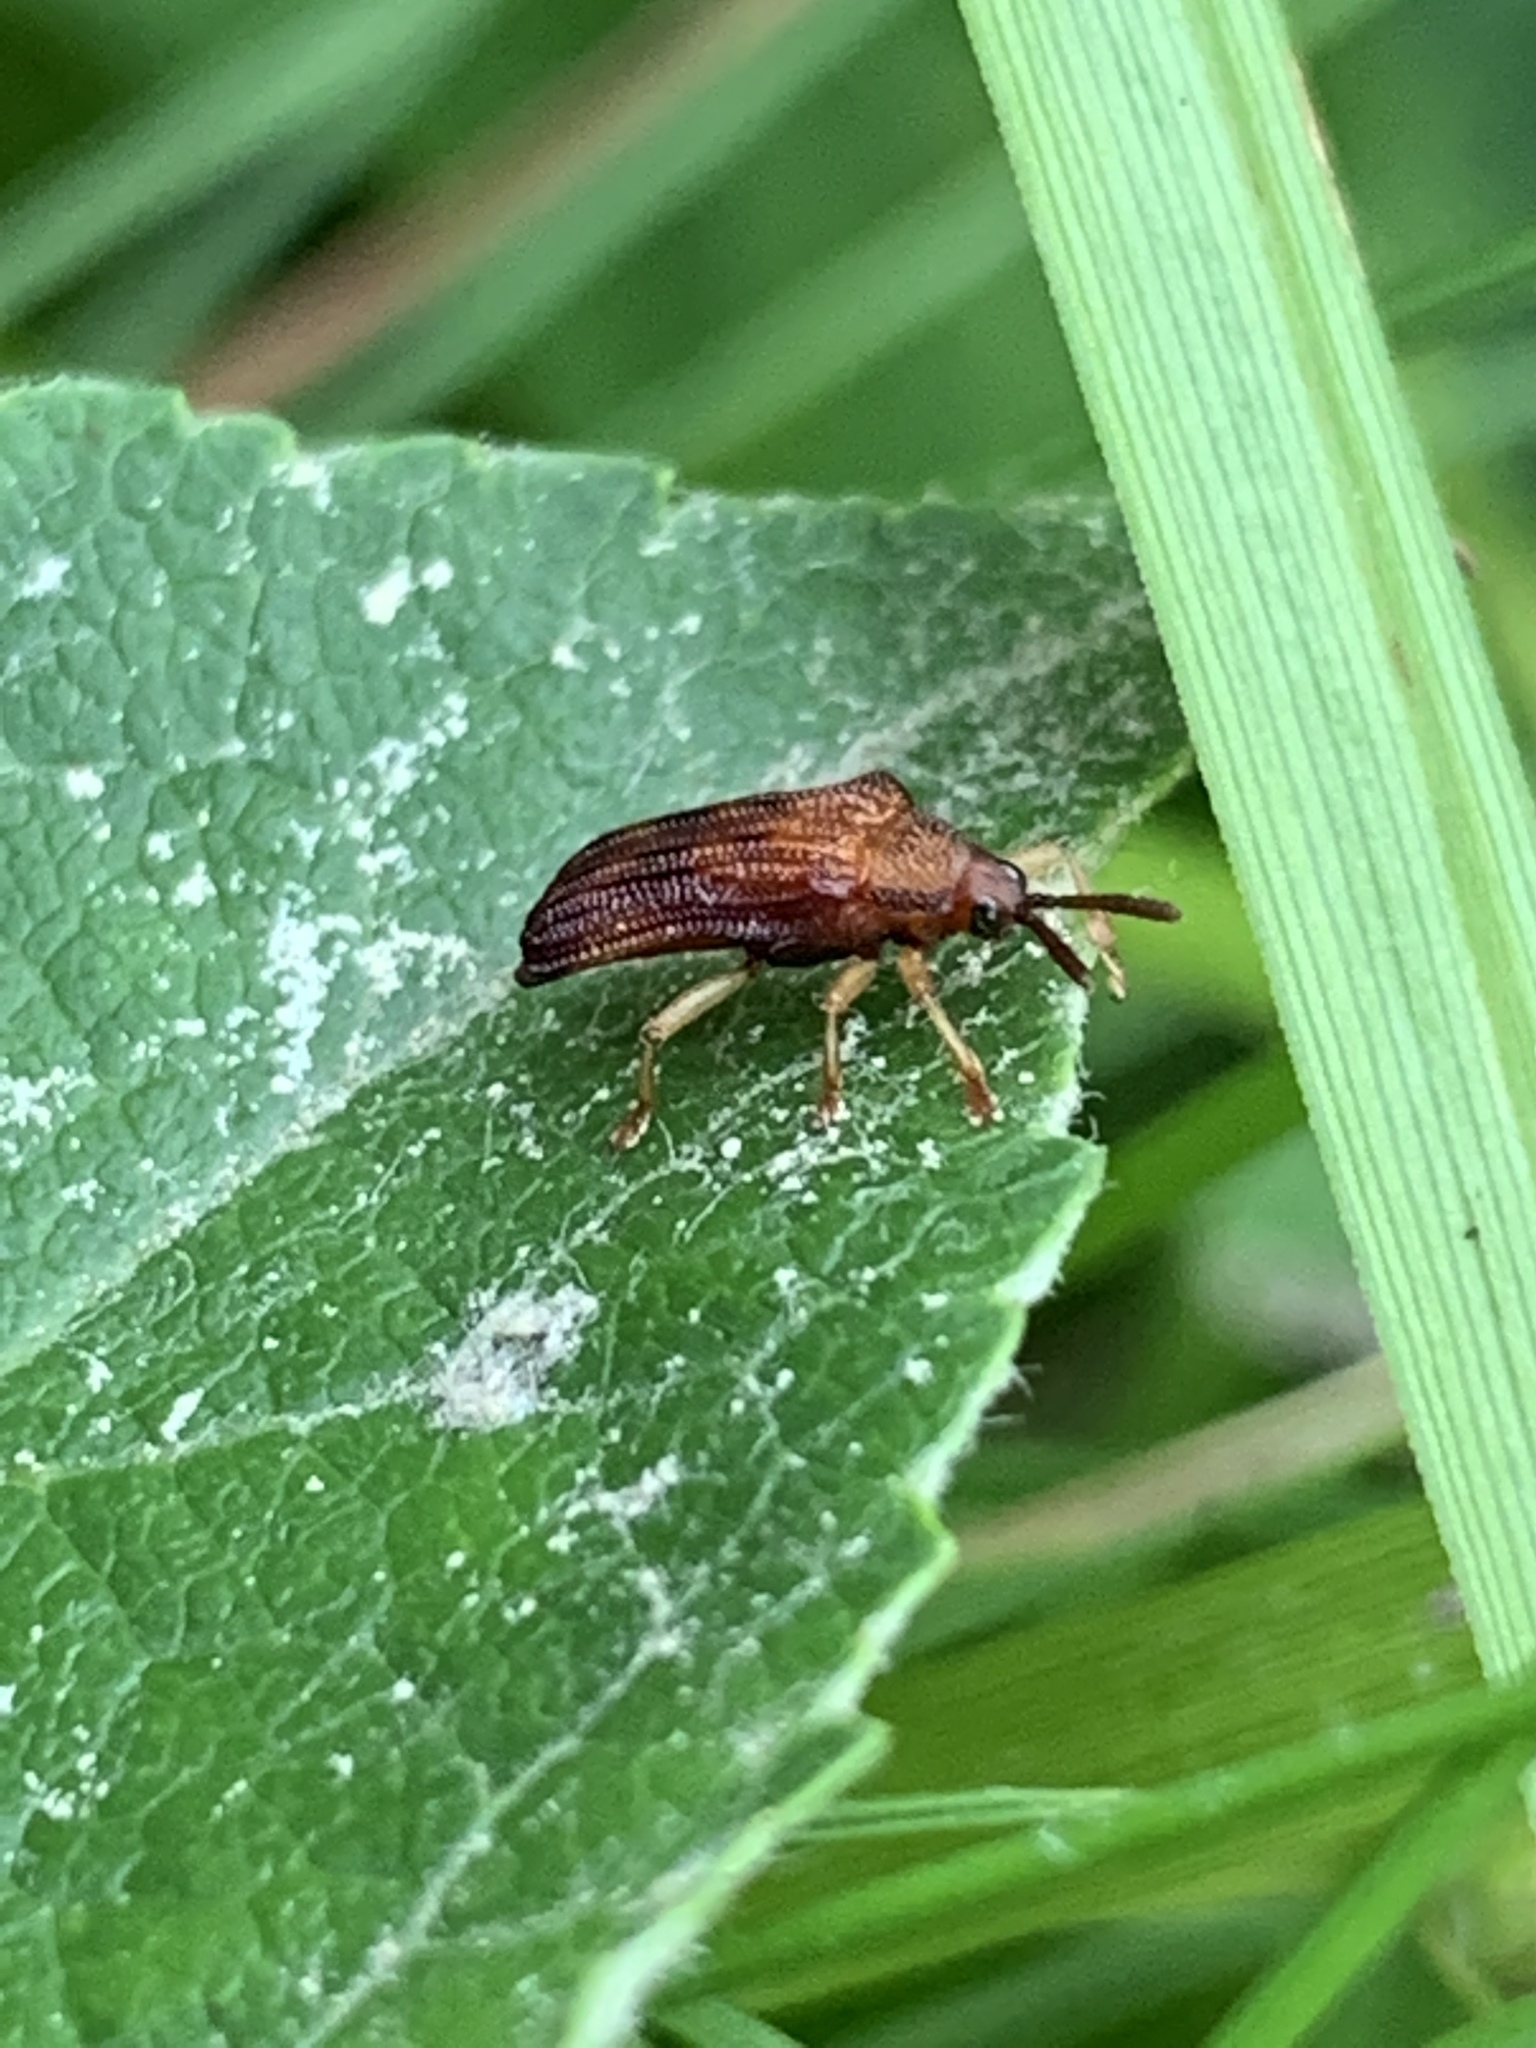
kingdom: Animalia
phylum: Arthropoda
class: Insecta
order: Coleoptera
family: Chrysomelidae
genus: Baliosus
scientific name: Baliosus nervosus
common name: Basswood leaf miner
